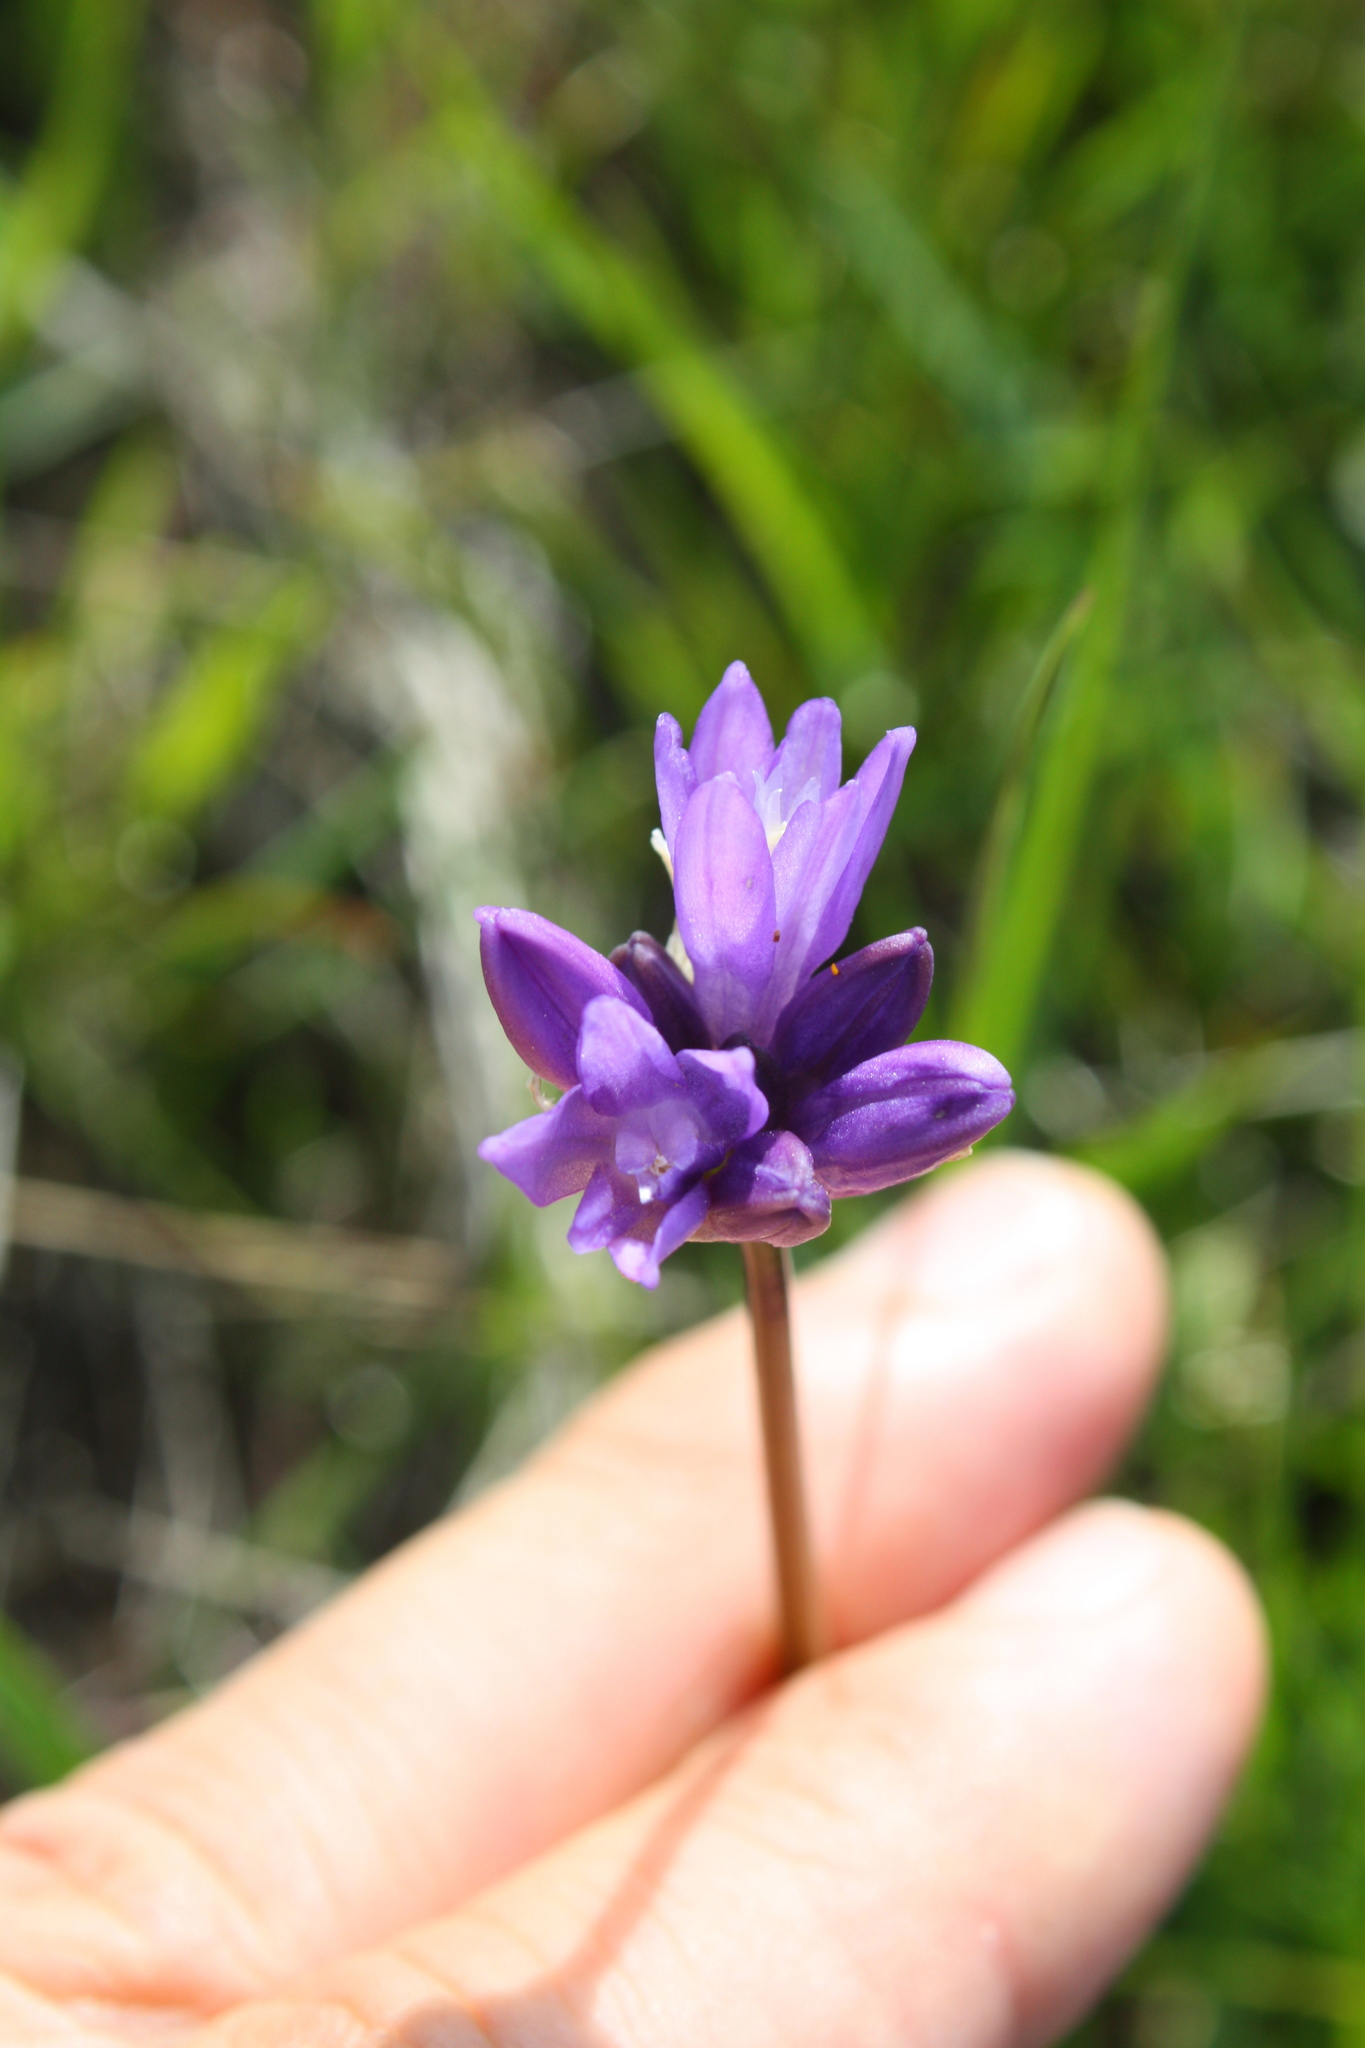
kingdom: Plantae
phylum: Tracheophyta
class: Liliopsida
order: Asparagales
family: Asparagaceae
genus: Dipterostemon
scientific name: Dipterostemon capitatus
